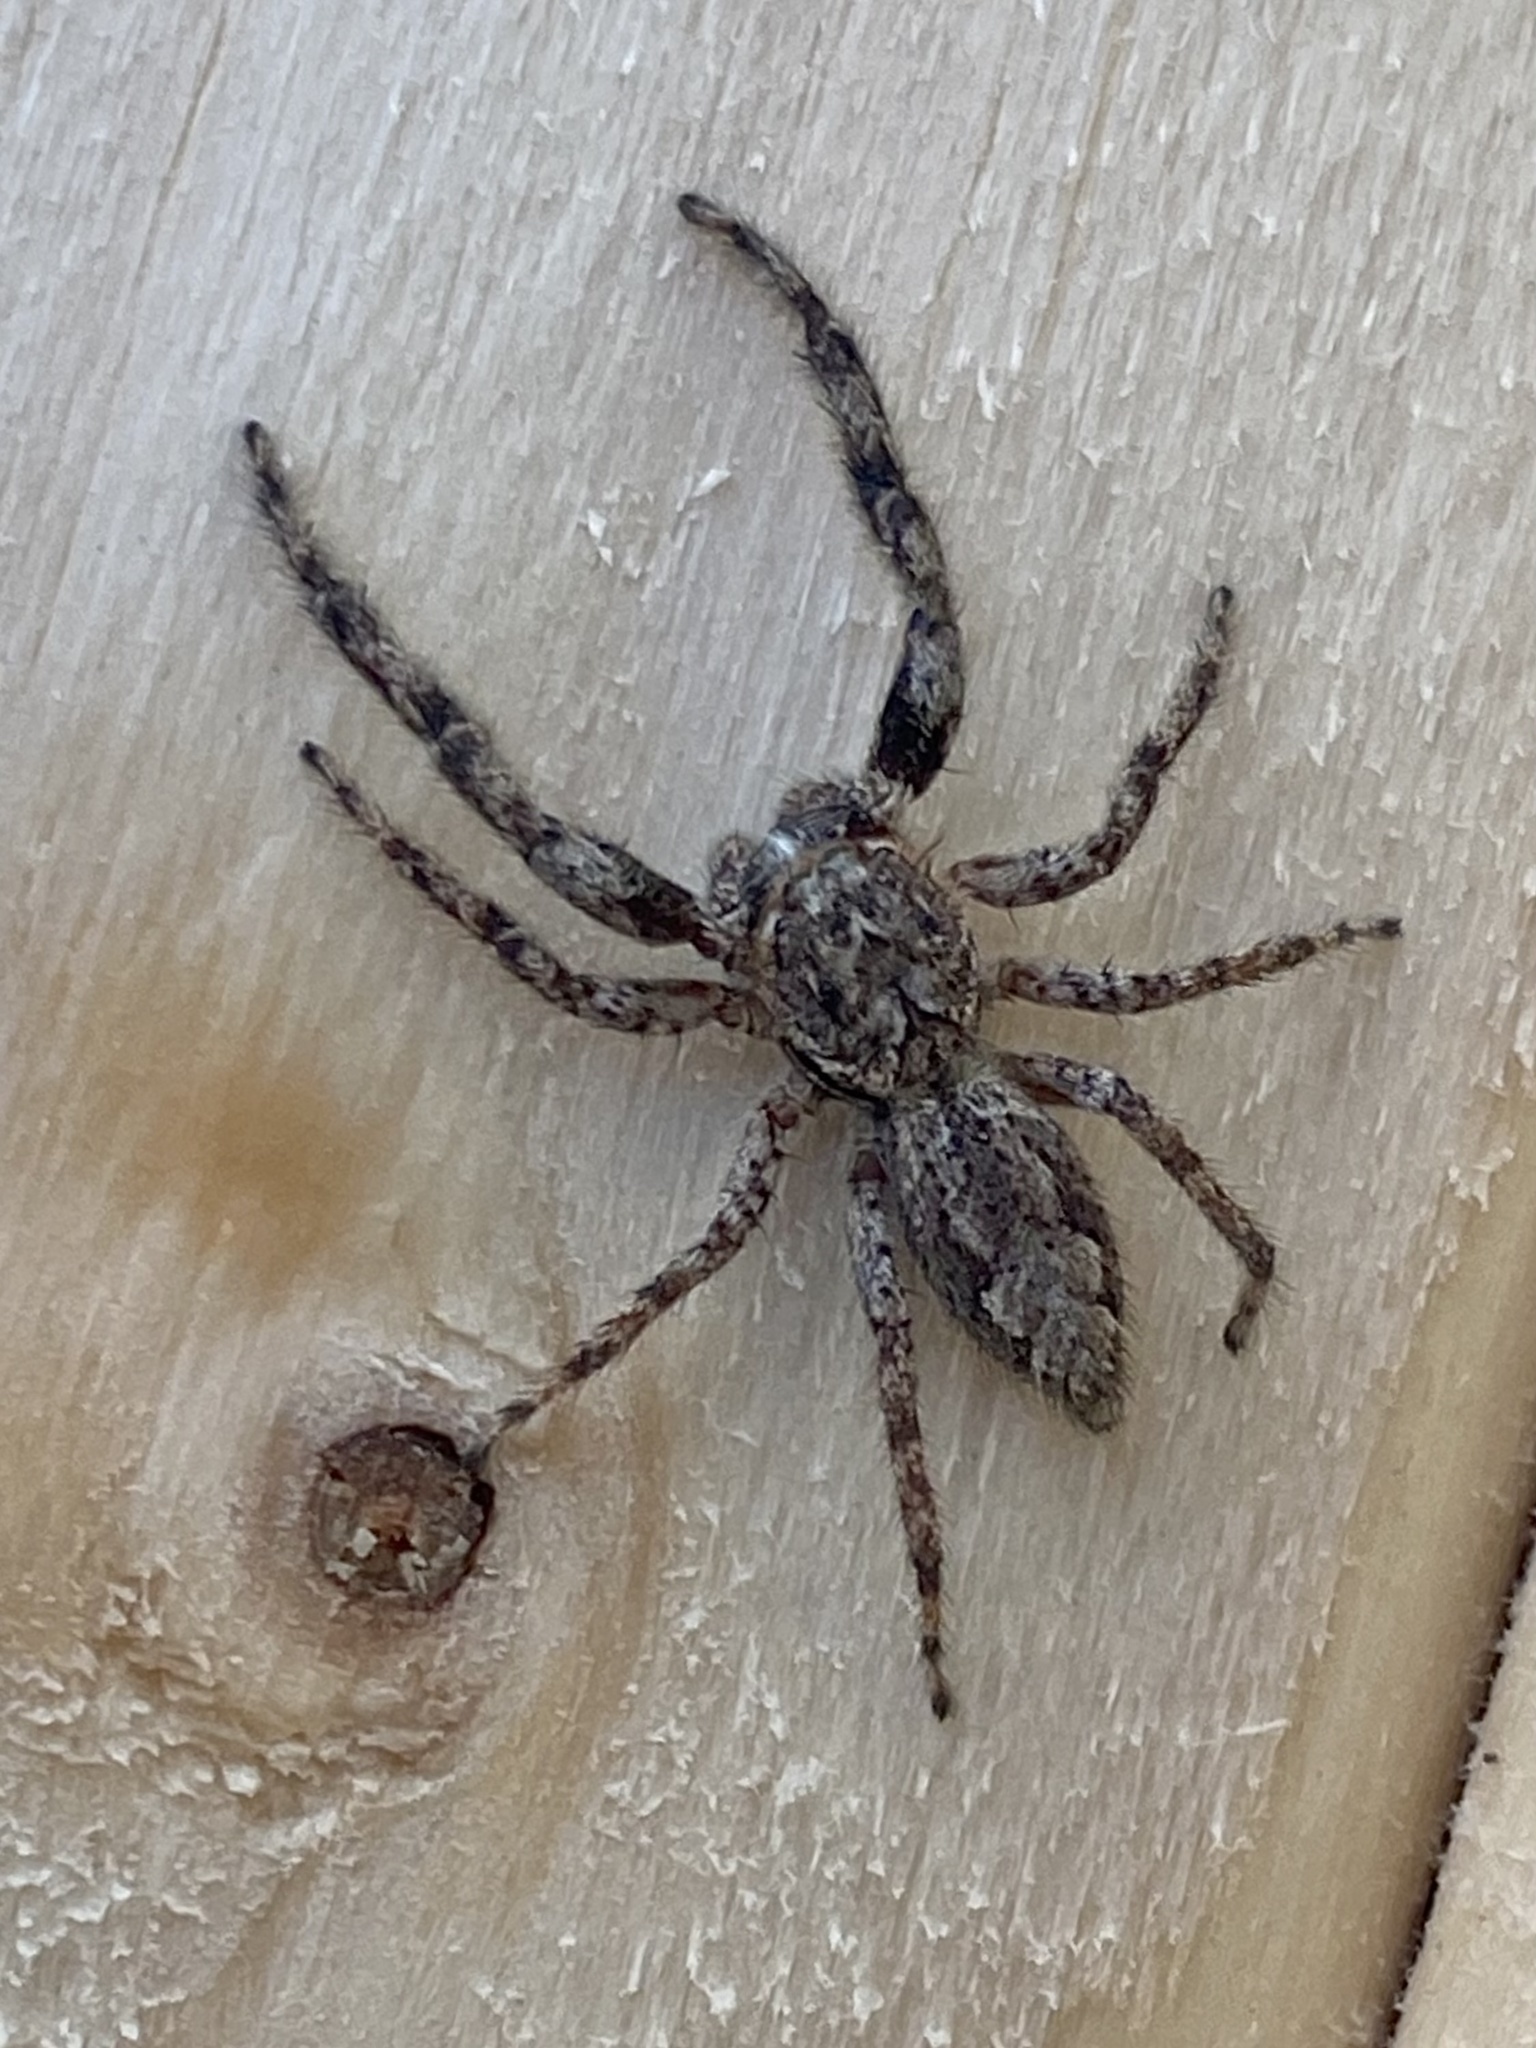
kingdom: Animalia
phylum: Arthropoda
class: Arachnida
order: Araneae
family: Salticidae
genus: Platycryptus
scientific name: Platycryptus undatus
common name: Tan jumping spider
